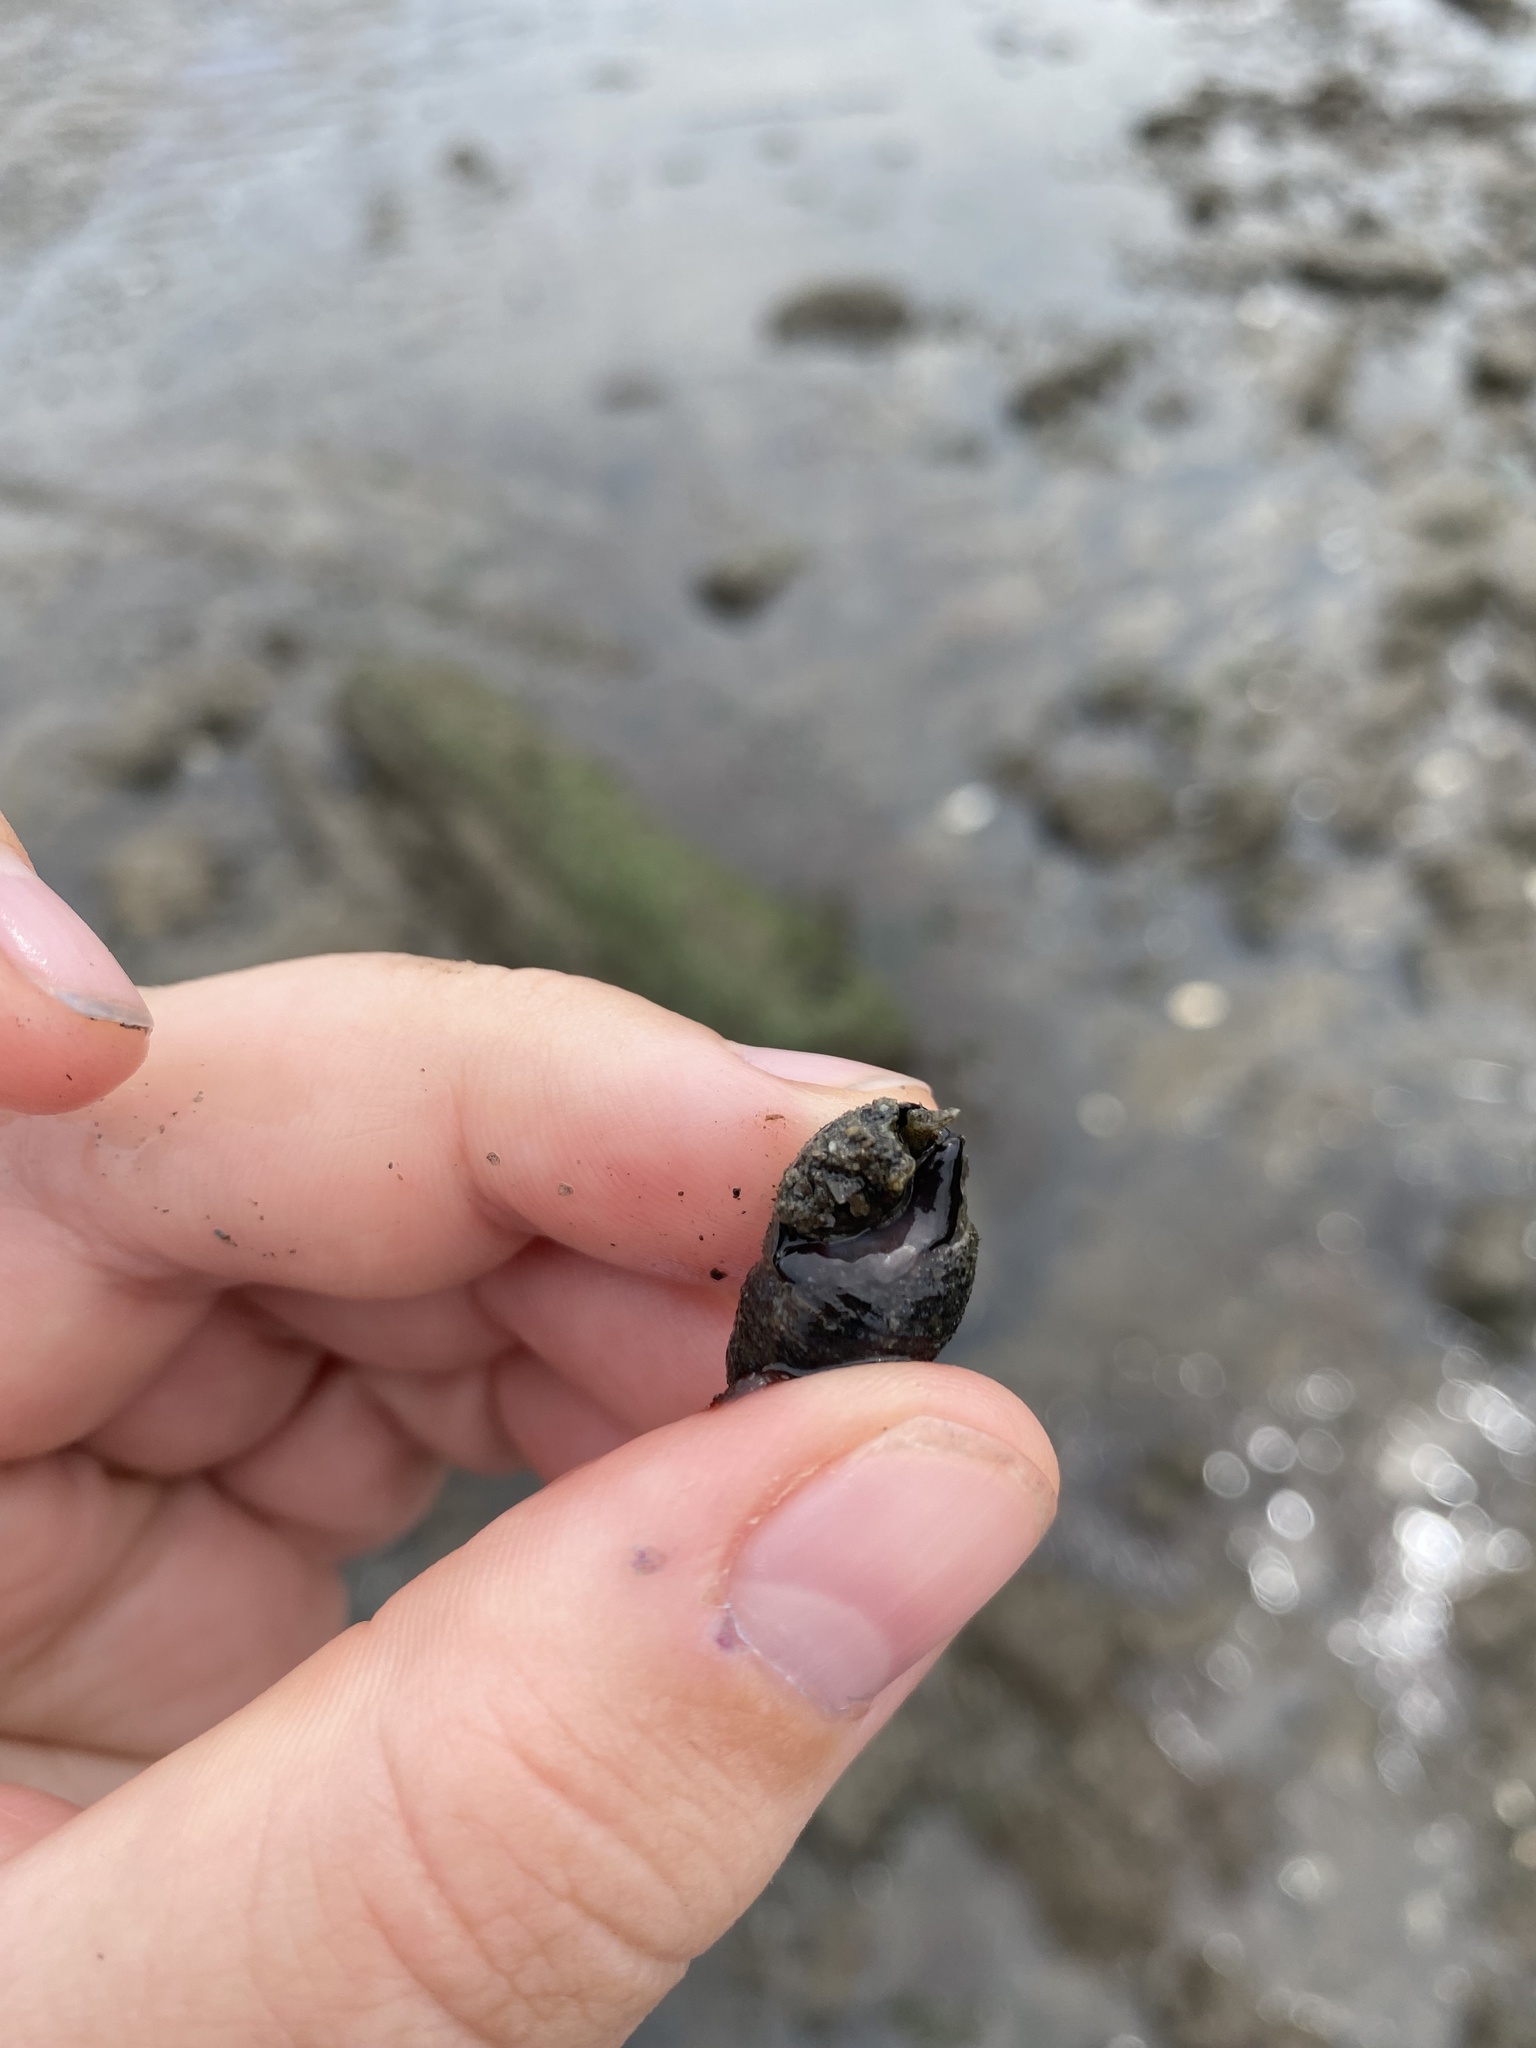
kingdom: Animalia
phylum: Mollusca
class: Gastropoda
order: Neogastropoda
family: Nassariidae
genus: Ilyanassa
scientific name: Ilyanassa obsoleta
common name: Eastern mudsnail
